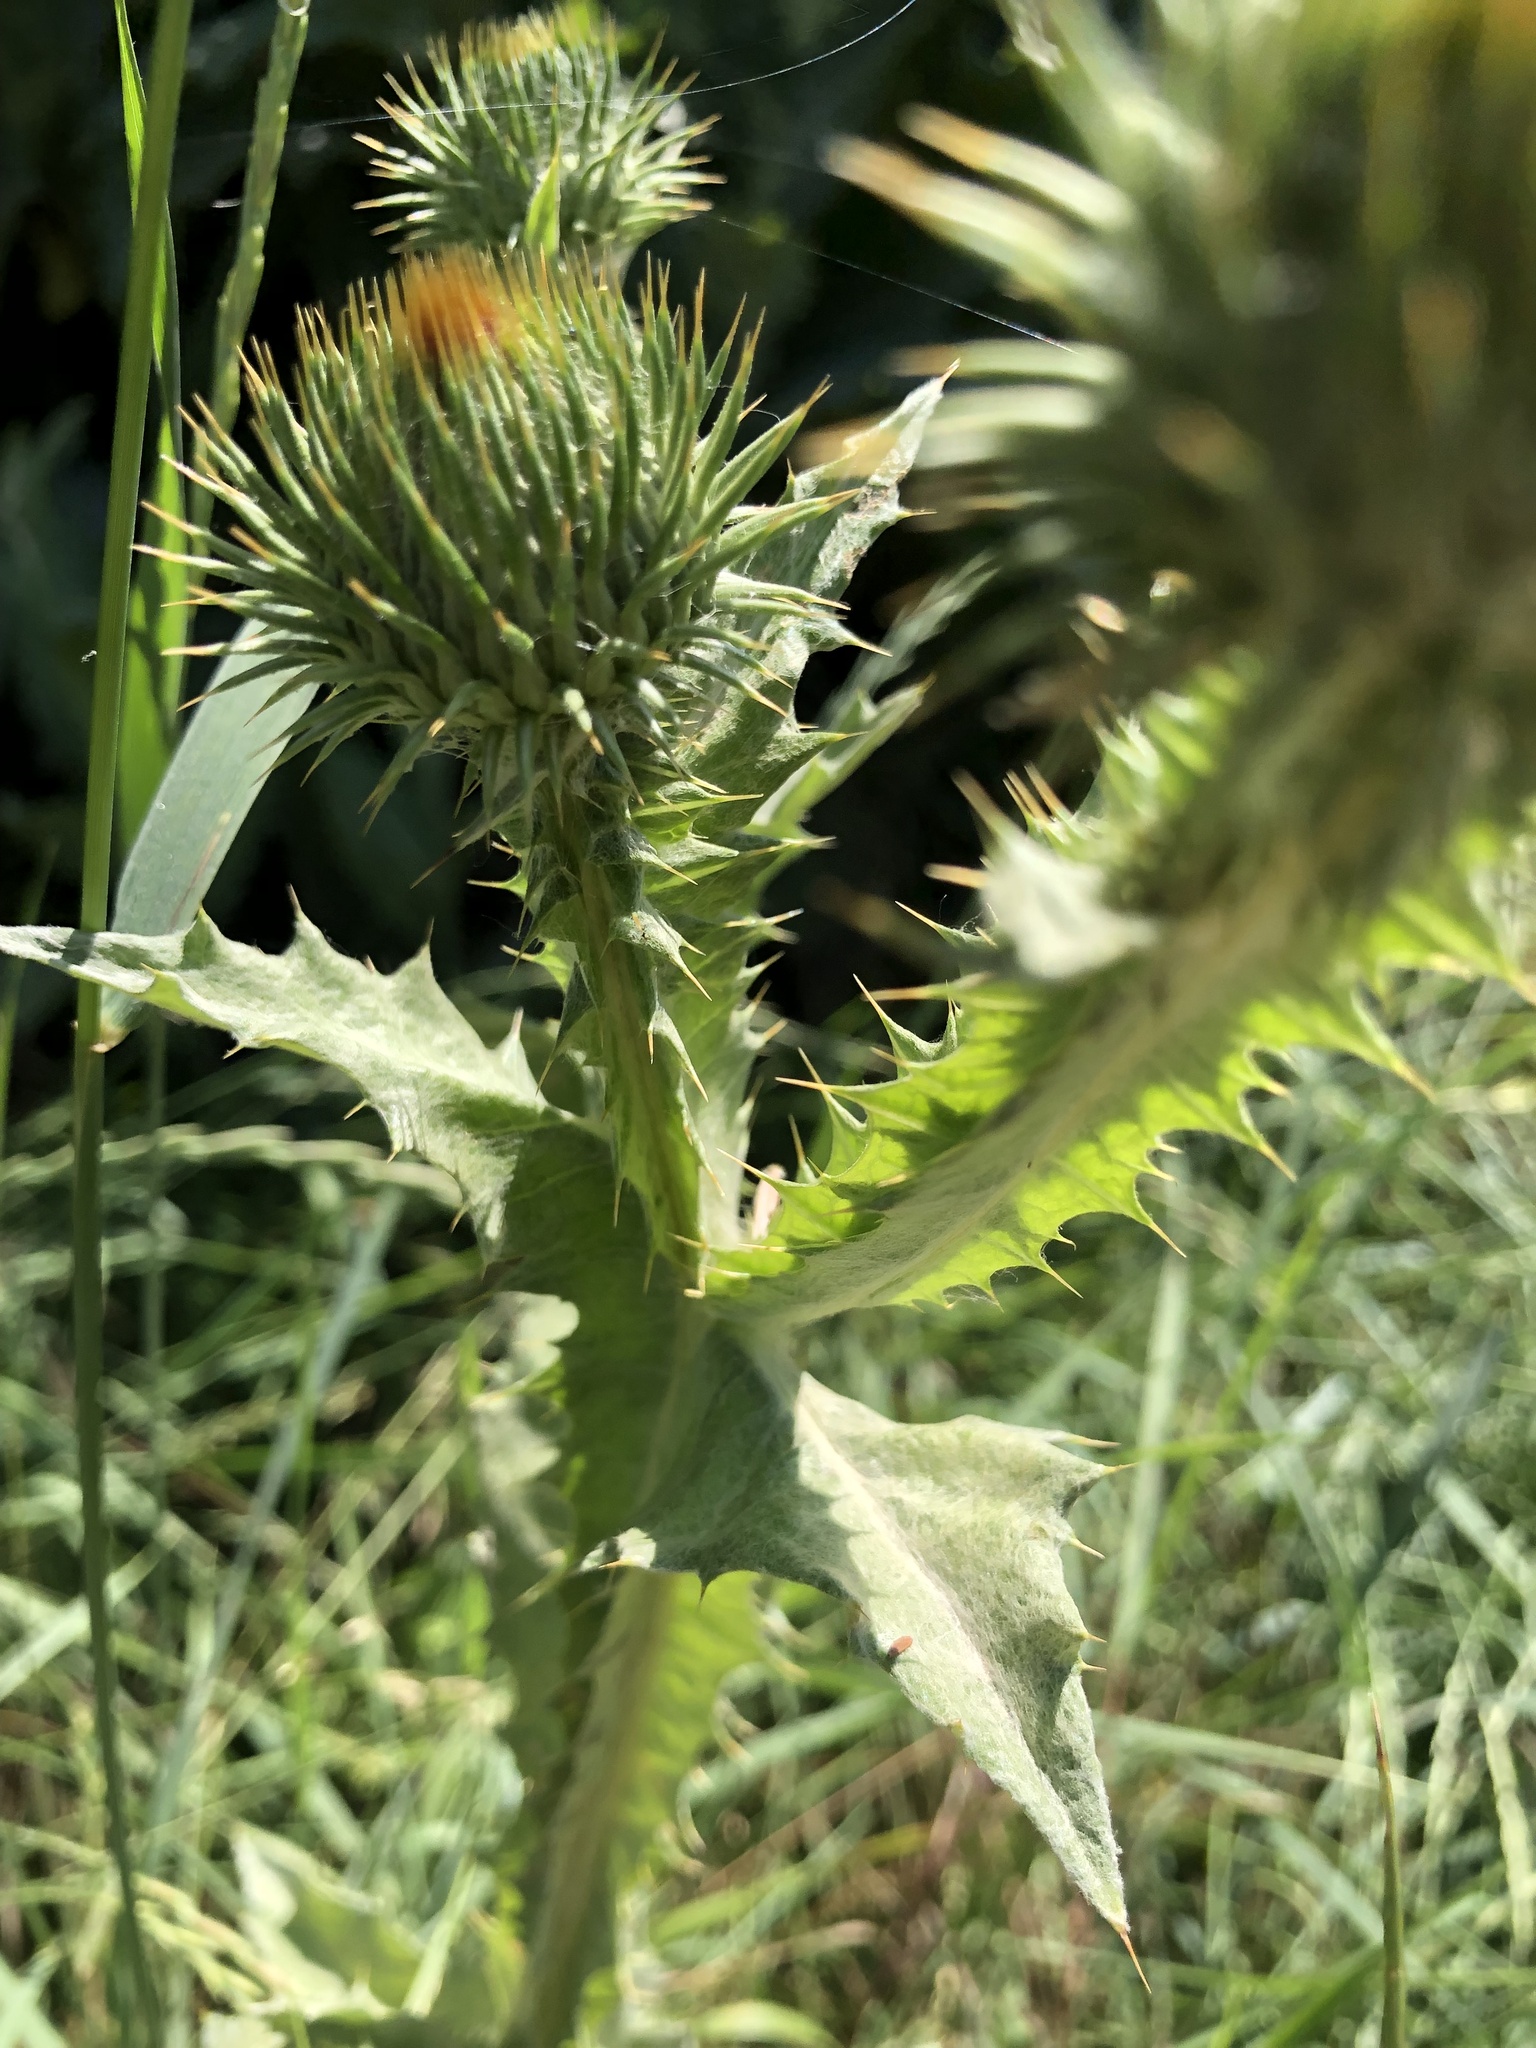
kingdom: Plantae
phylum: Tracheophyta
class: Magnoliopsida
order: Asterales
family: Asteraceae
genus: Onopordum
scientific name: Onopordum acanthium
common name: Scotch thistle
